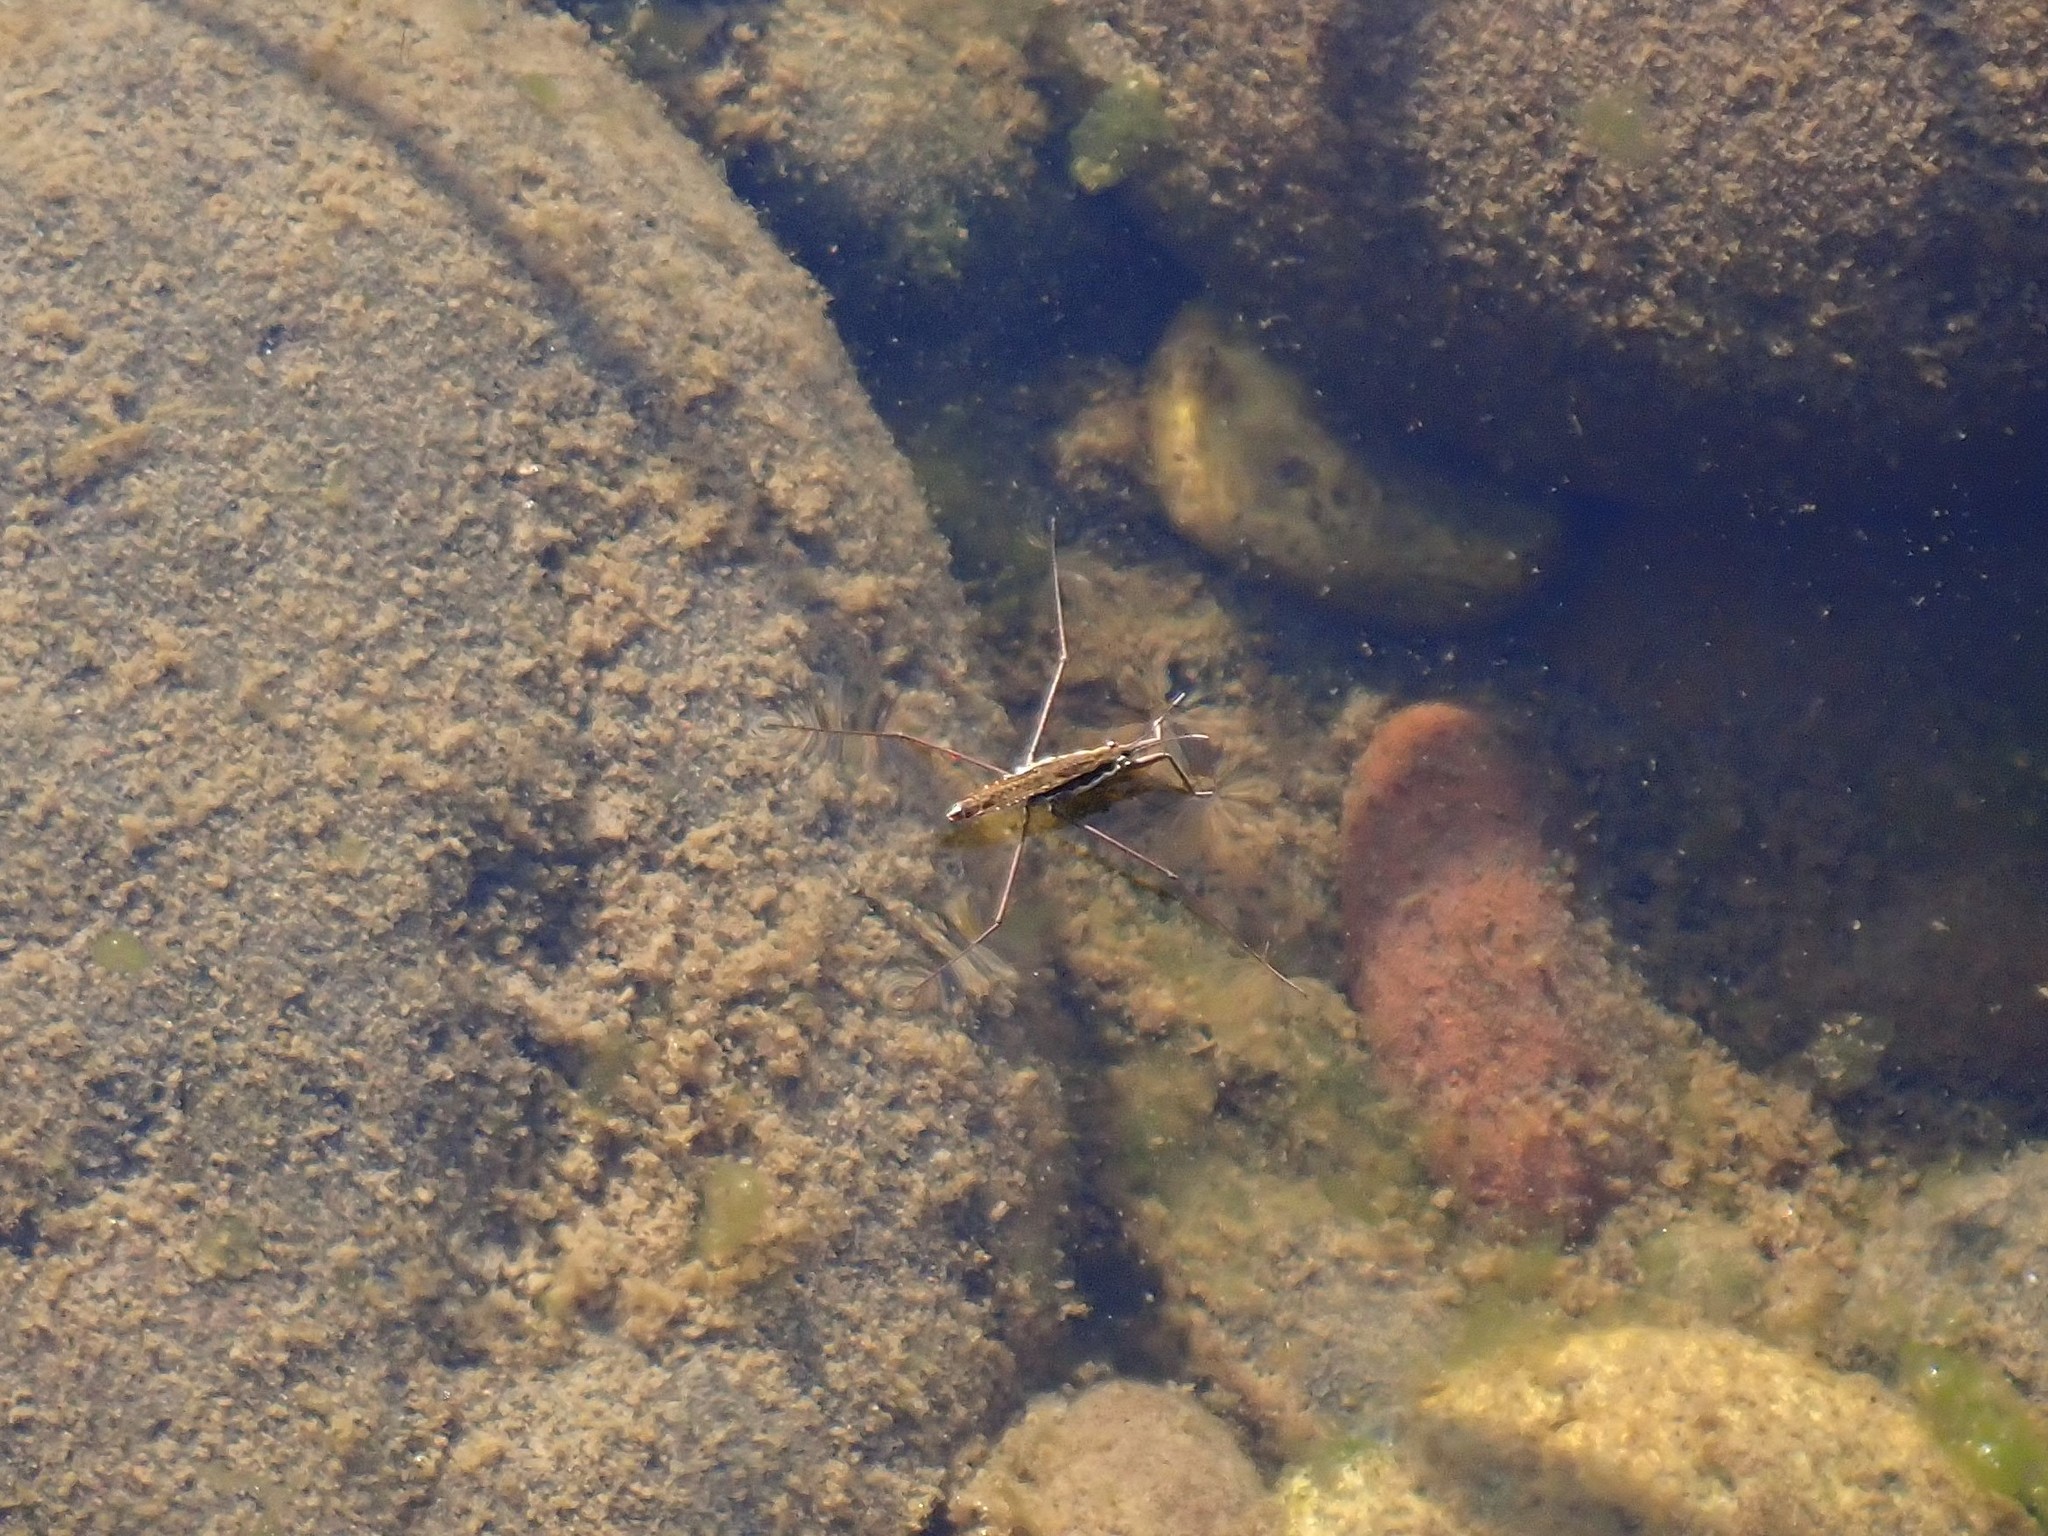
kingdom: Animalia
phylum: Arthropoda
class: Insecta
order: Hemiptera
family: Gerridae
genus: Aquarius
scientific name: Aquarius remigis
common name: Common water strider
